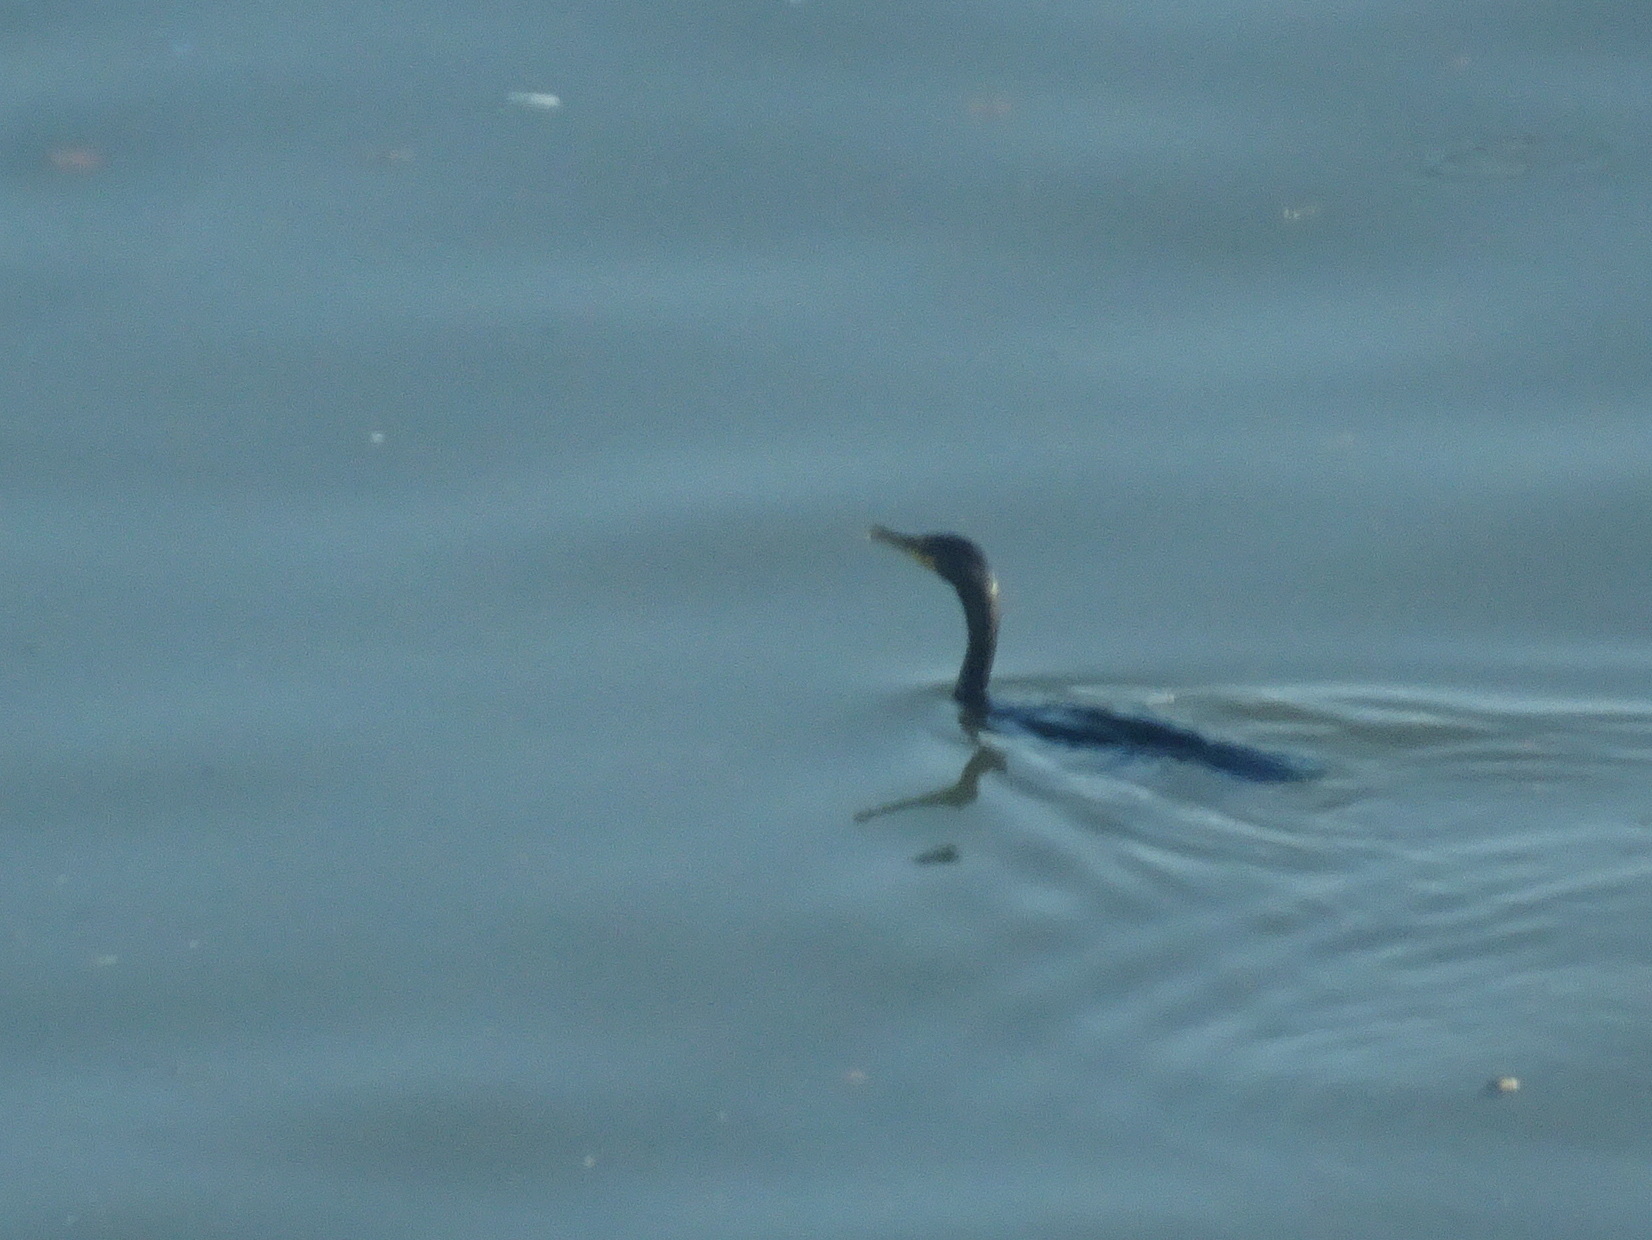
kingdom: Animalia
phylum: Chordata
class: Aves
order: Suliformes
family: Phalacrocoracidae
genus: Phalacrocorax
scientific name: Phalacrocorax auritus
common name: Double-crested cormorant
